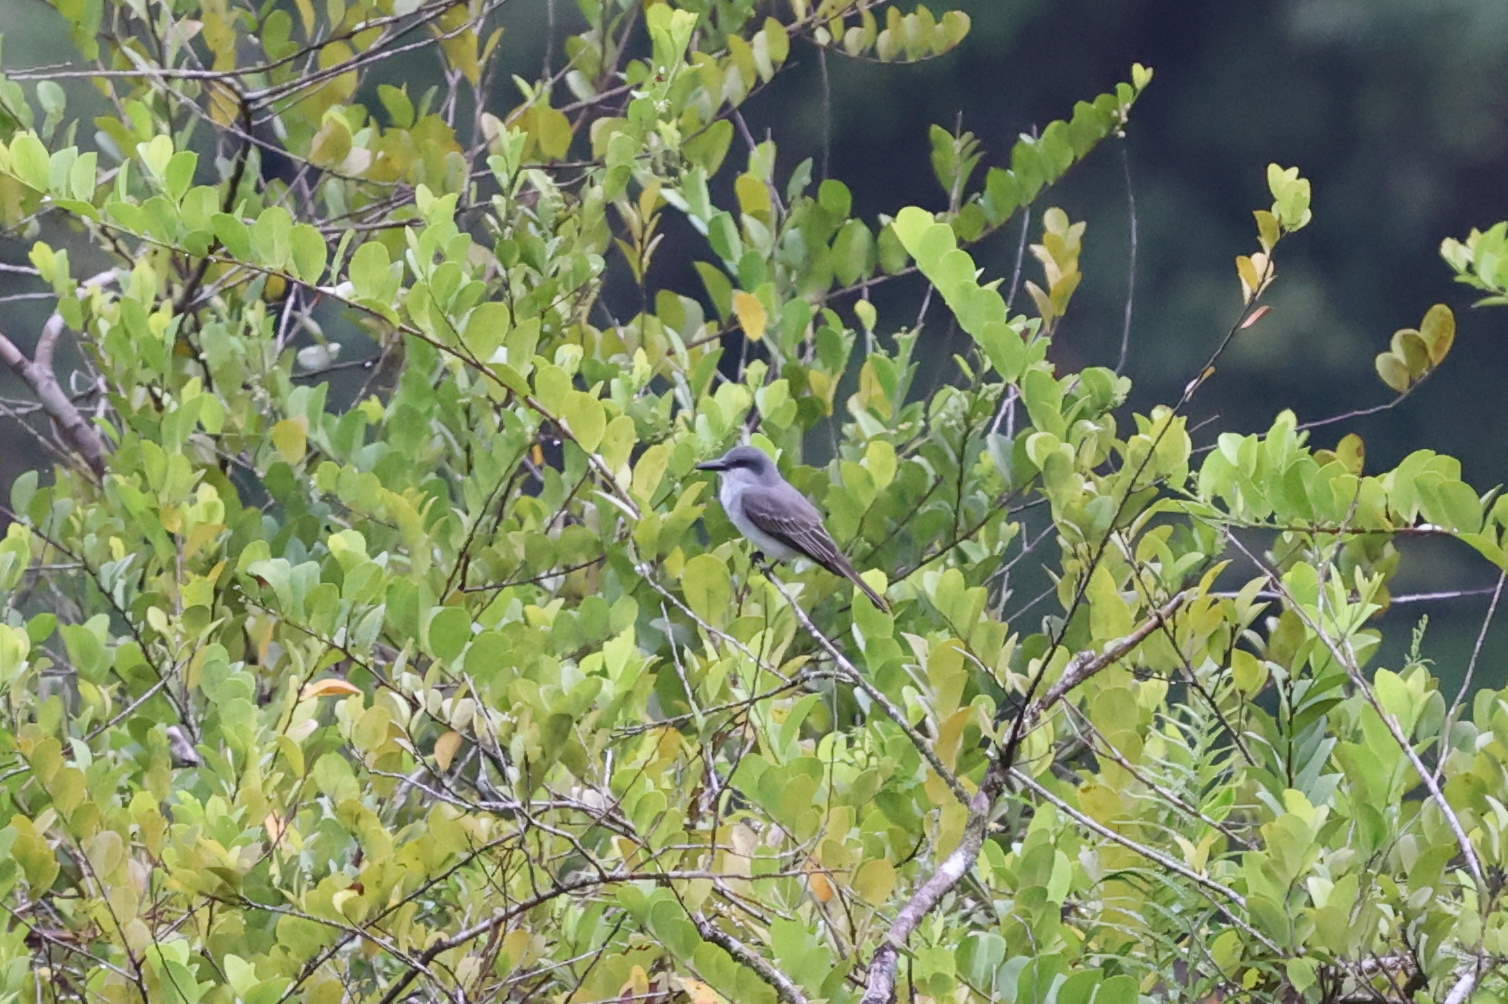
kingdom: Animalia
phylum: Chordata
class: Aves
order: Passeriformes
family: Tyrannidae
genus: Tyrannus
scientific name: Tyrannus dominicensis
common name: Gray kingbird
